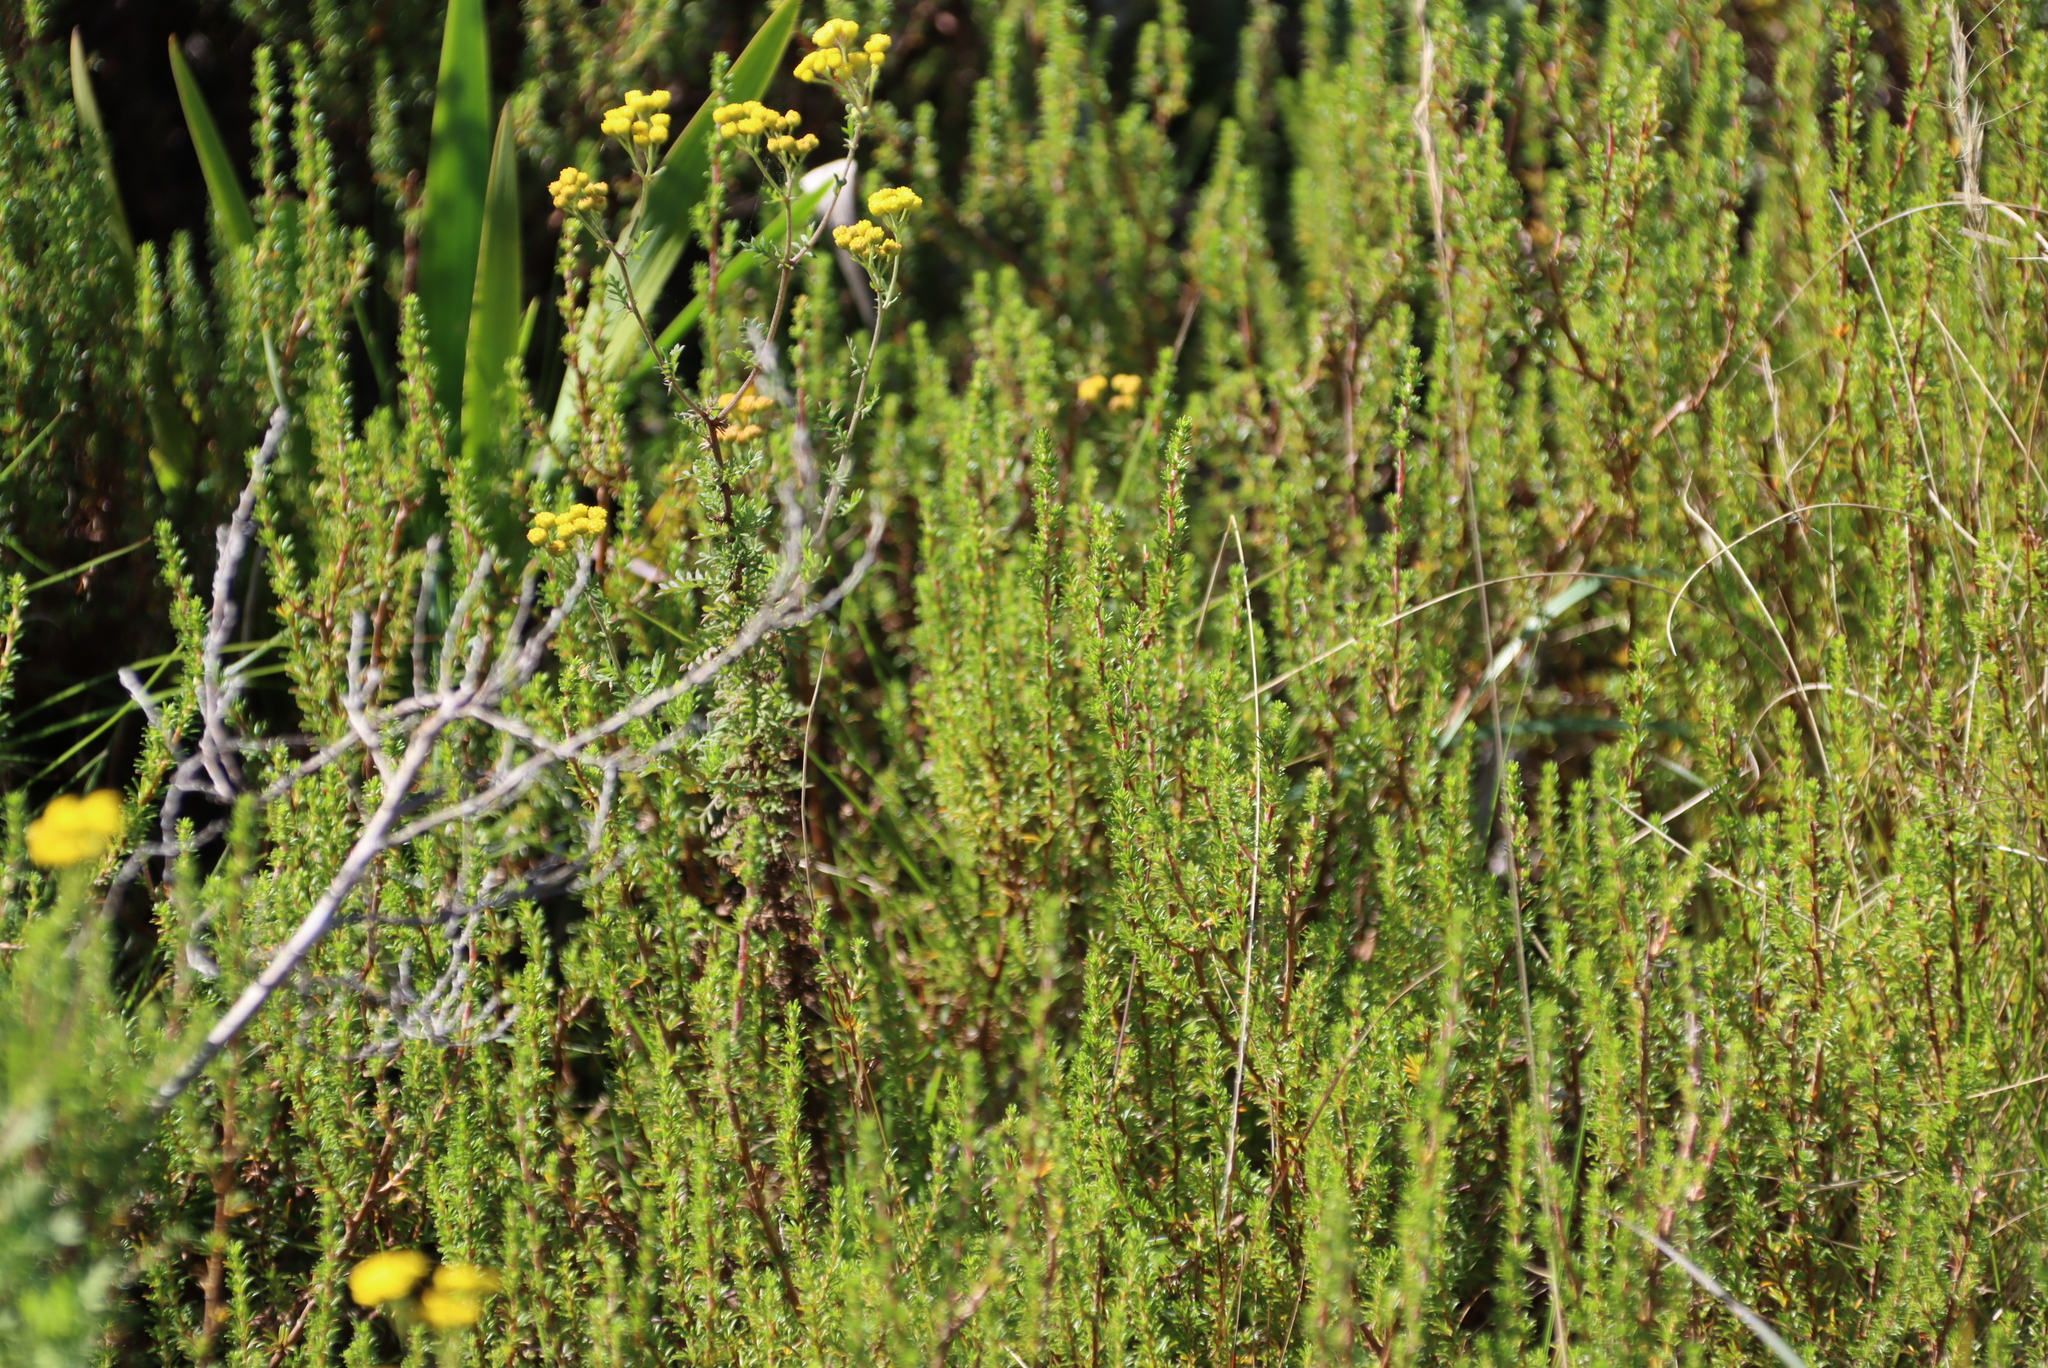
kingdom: Plantae
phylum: Tracheophyta
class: Magnoliopsida
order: Rosales
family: Rosaceae
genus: Cliffortia
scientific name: Cliffortia linearifolia
